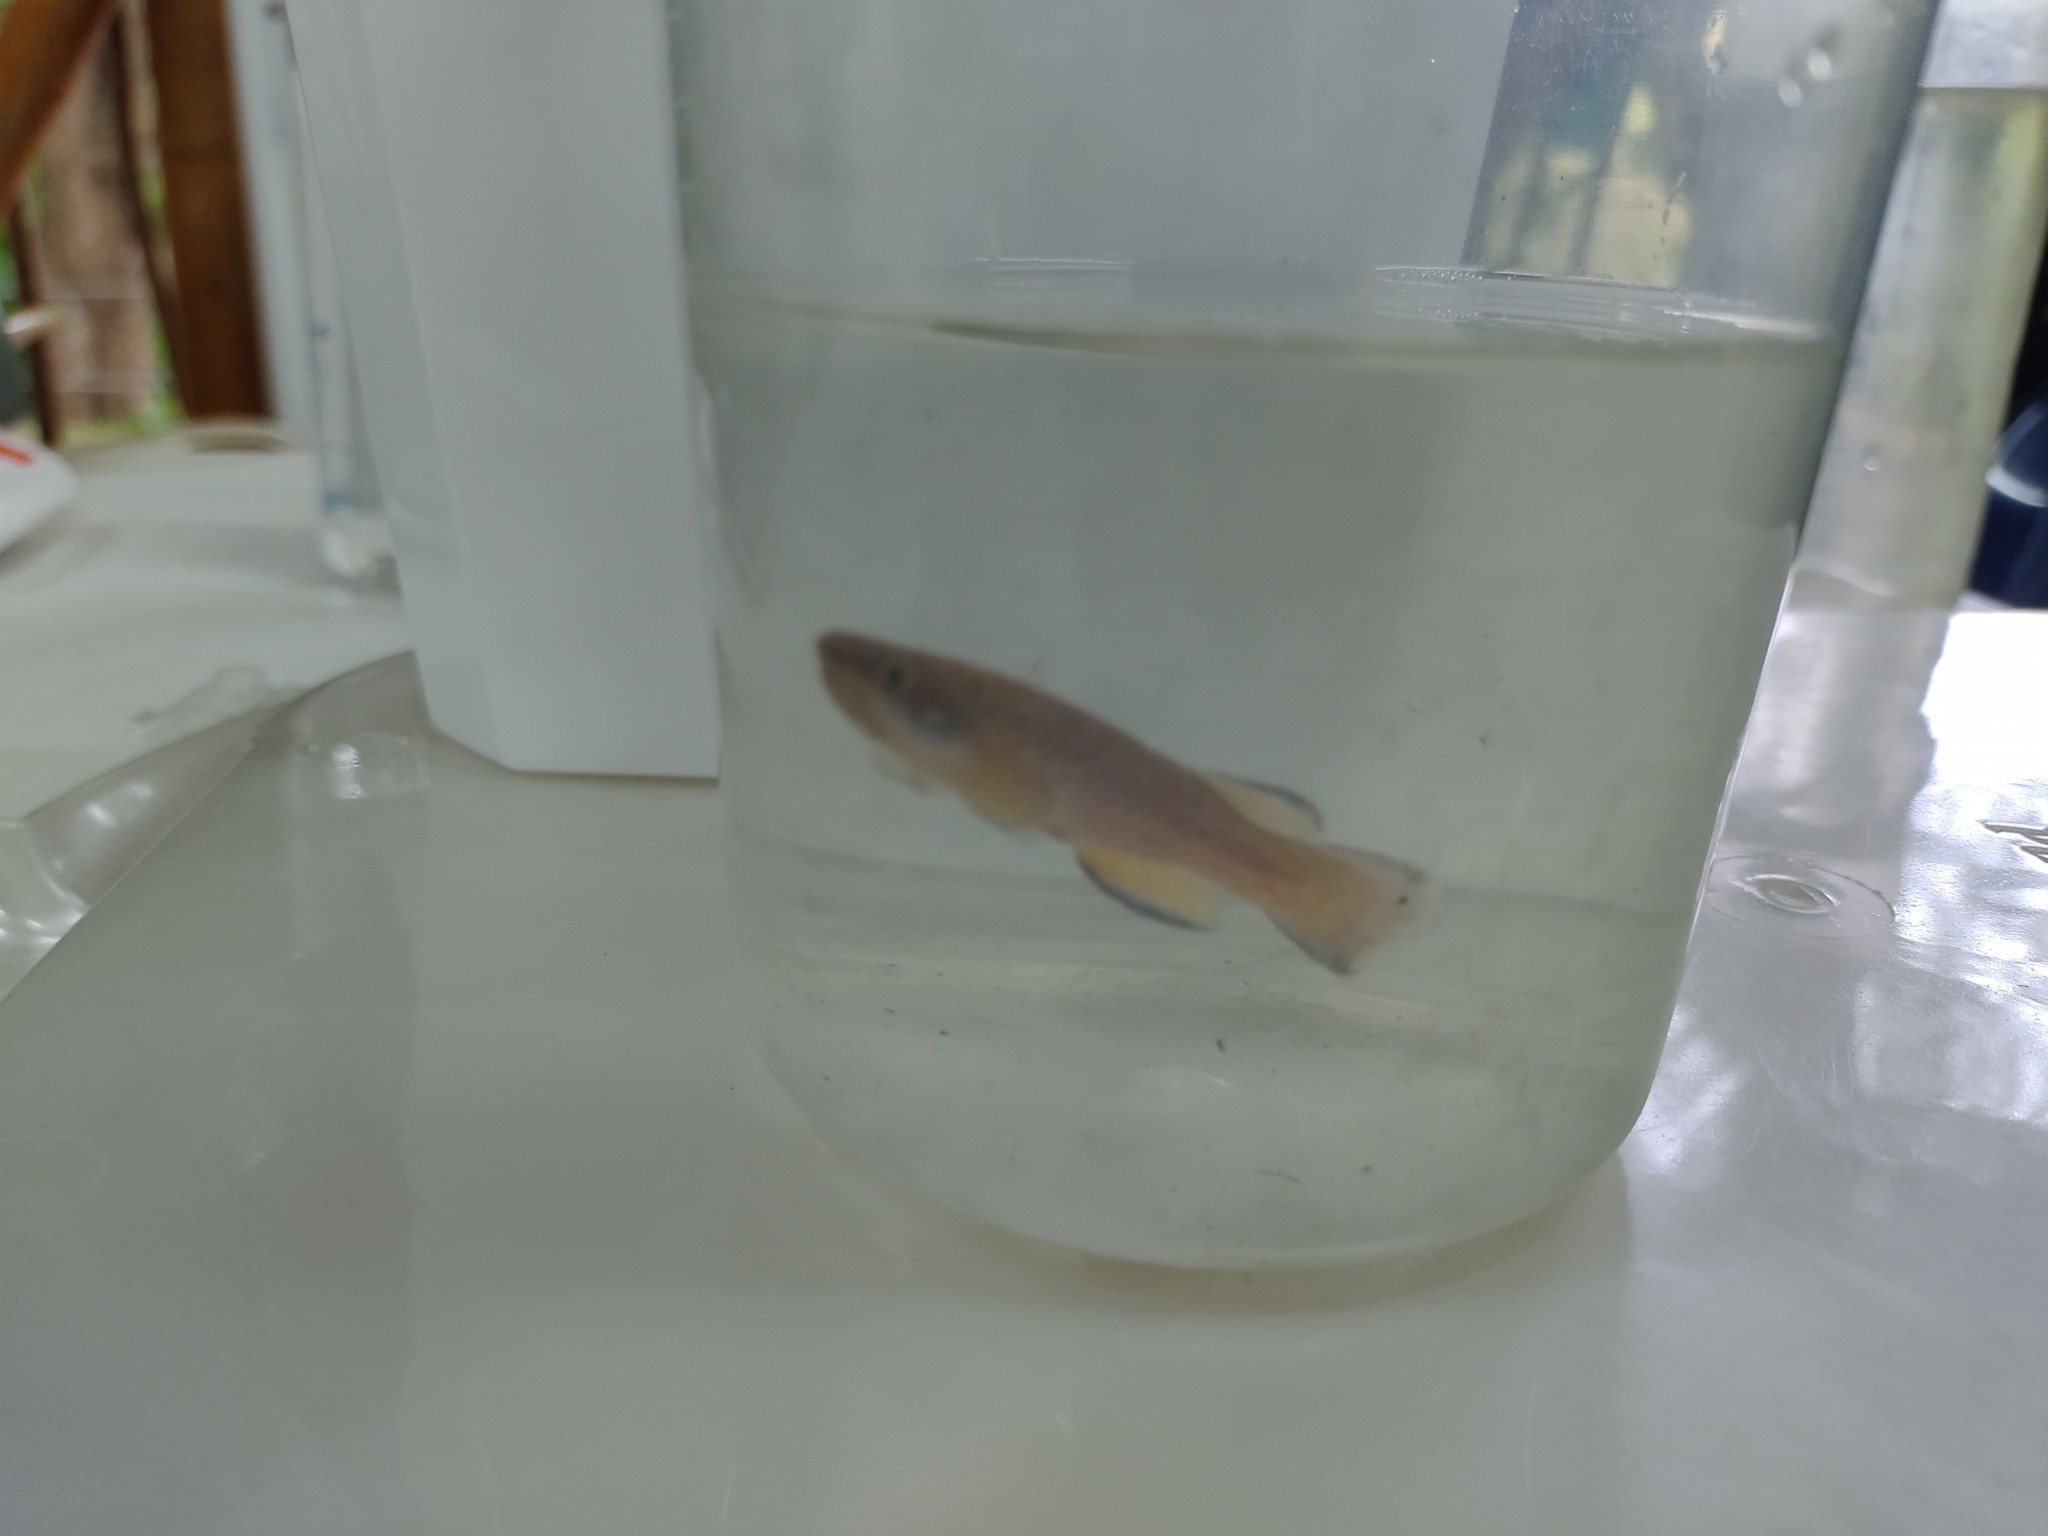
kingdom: Animalia
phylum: Chordata
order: Cyprinodontiformes
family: Rivulidae
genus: Cynodonichthys
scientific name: Cynodonichthys magdalenae
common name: Magdalena rivulus
